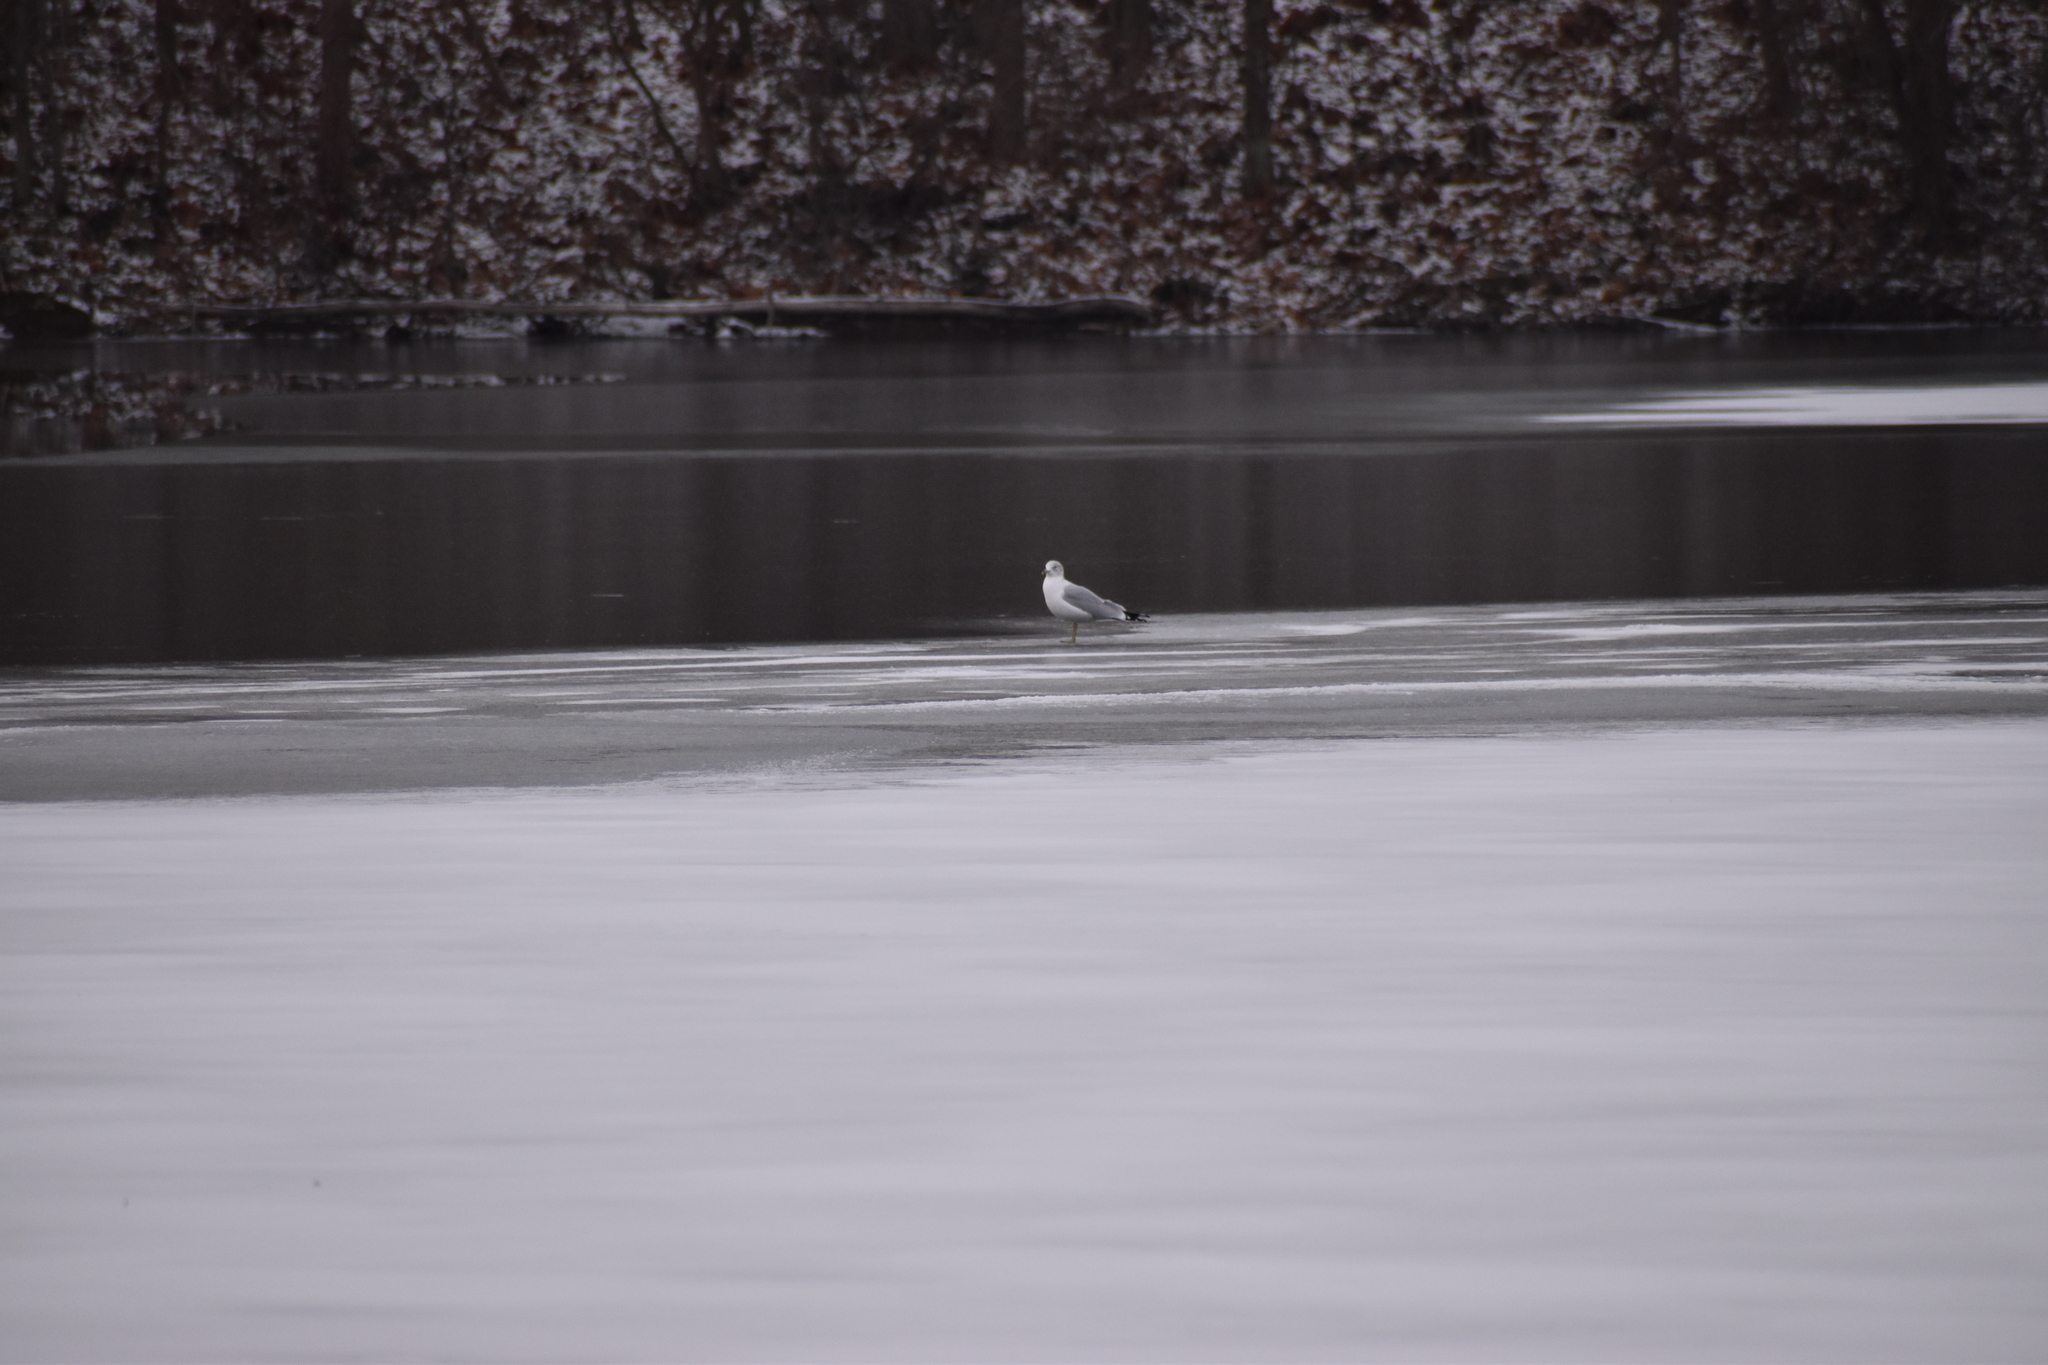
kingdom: Animalia
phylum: Chordata
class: Aves
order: Charadriiformes
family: Laridae
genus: Larus
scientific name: Larus delawarensis
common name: Ring-billed gull
